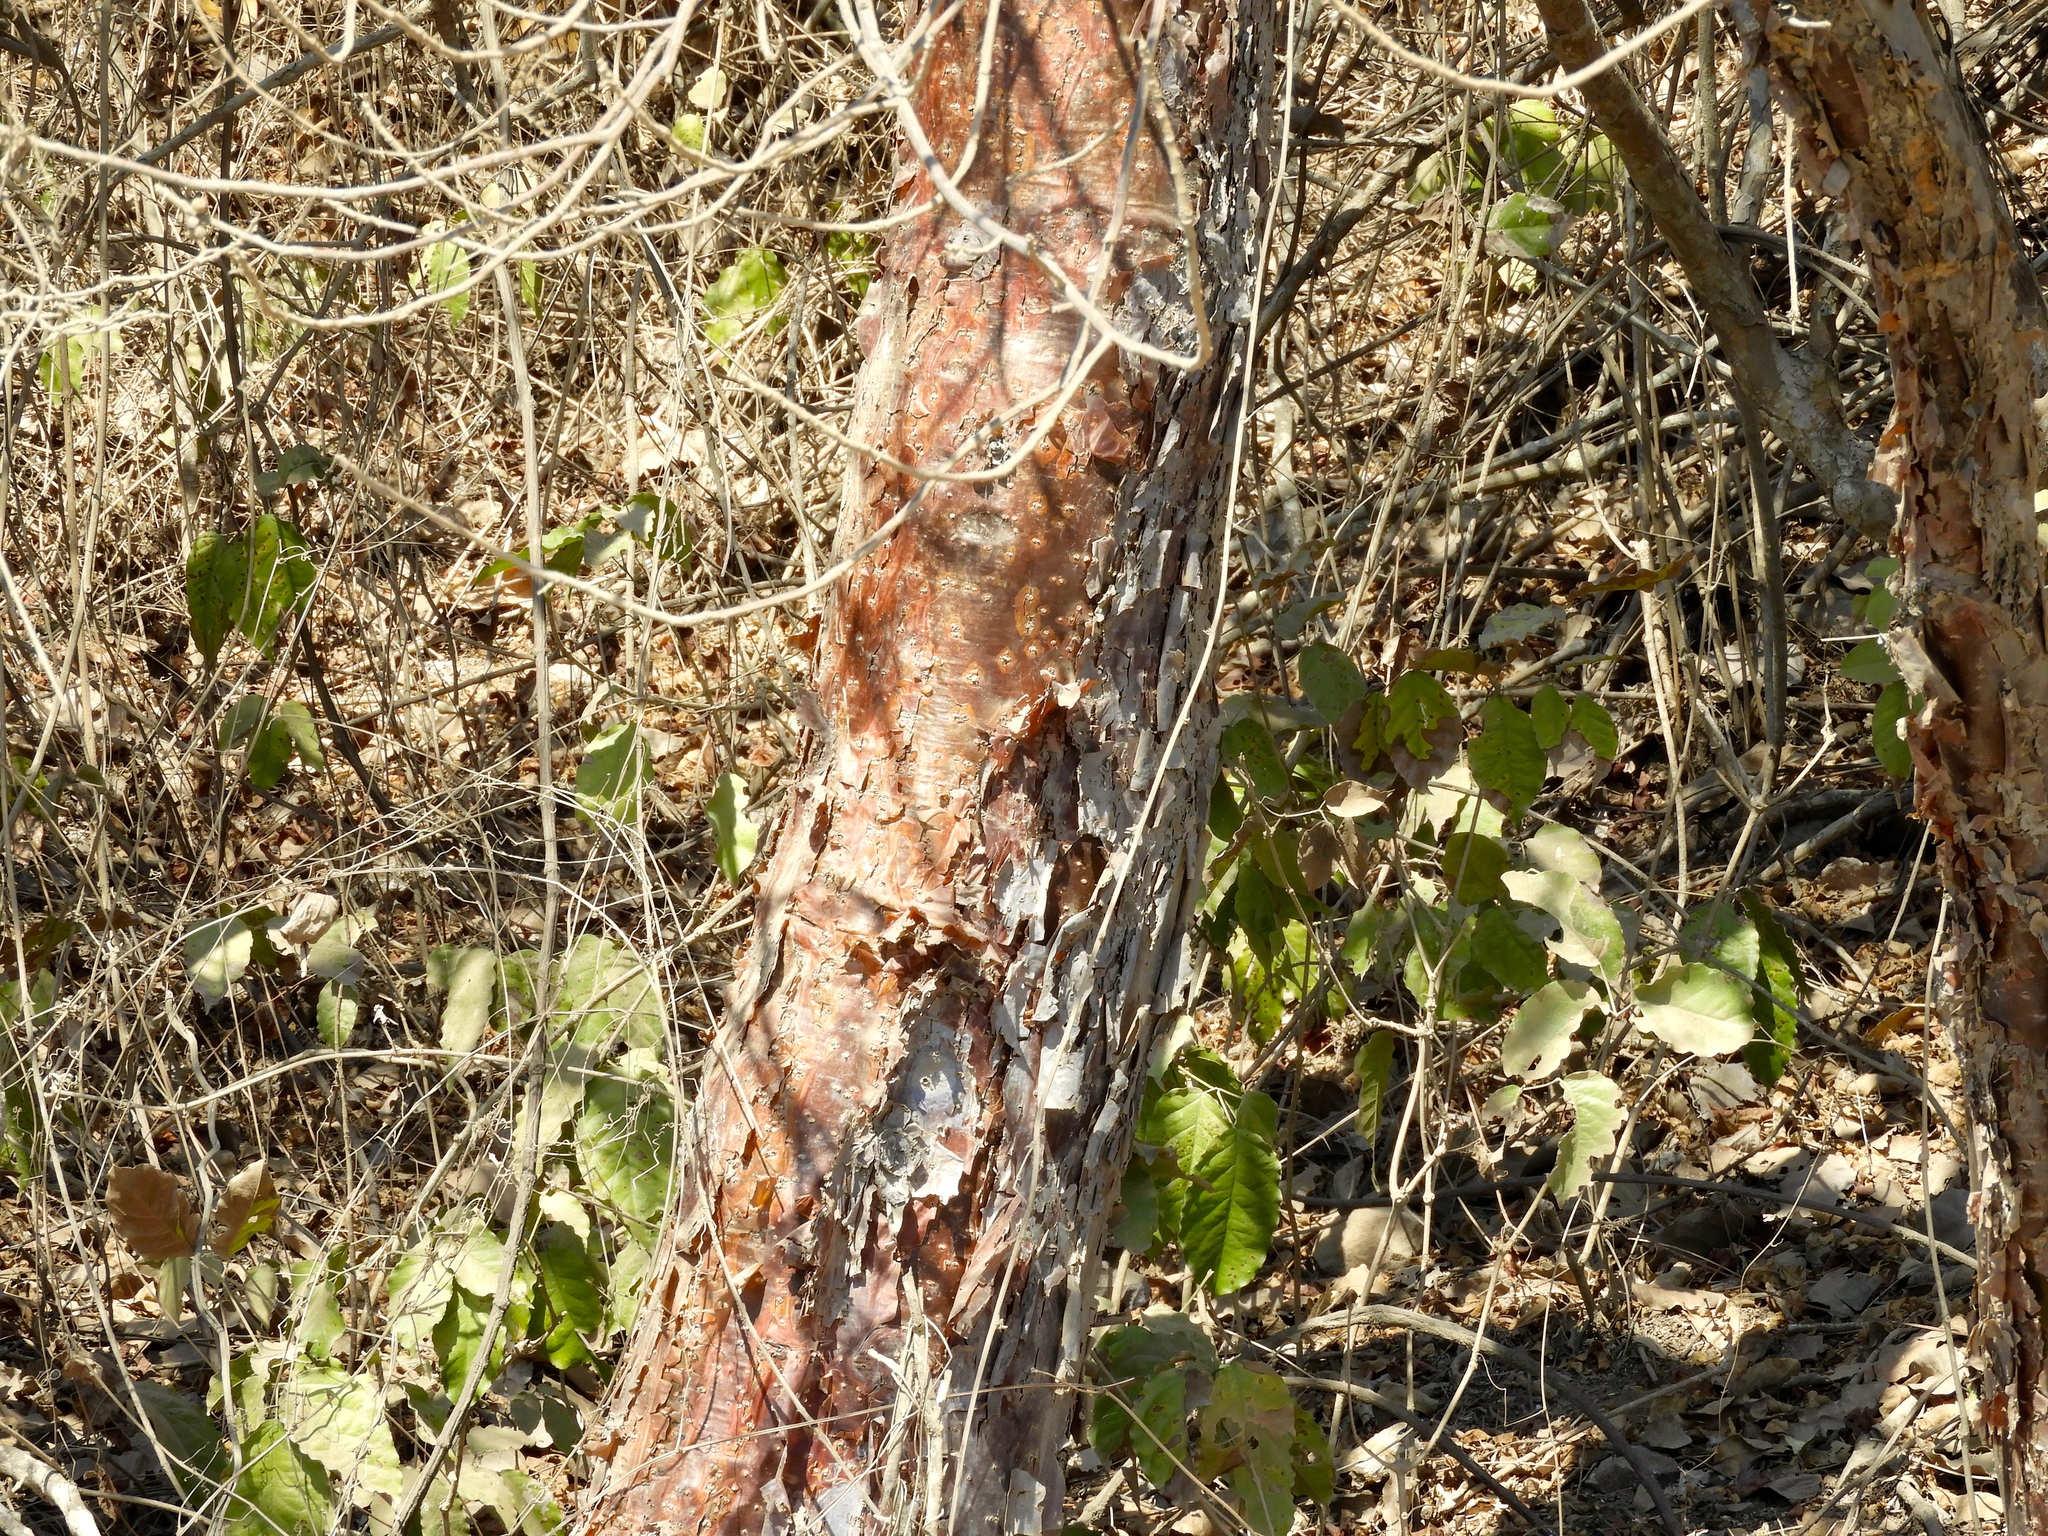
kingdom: Plantae
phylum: Tracheophyta
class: Magnoliopsida
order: Sapindales
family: Burseraceae
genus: Bursera
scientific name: Bursera simaruba
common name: Turpentine tree
